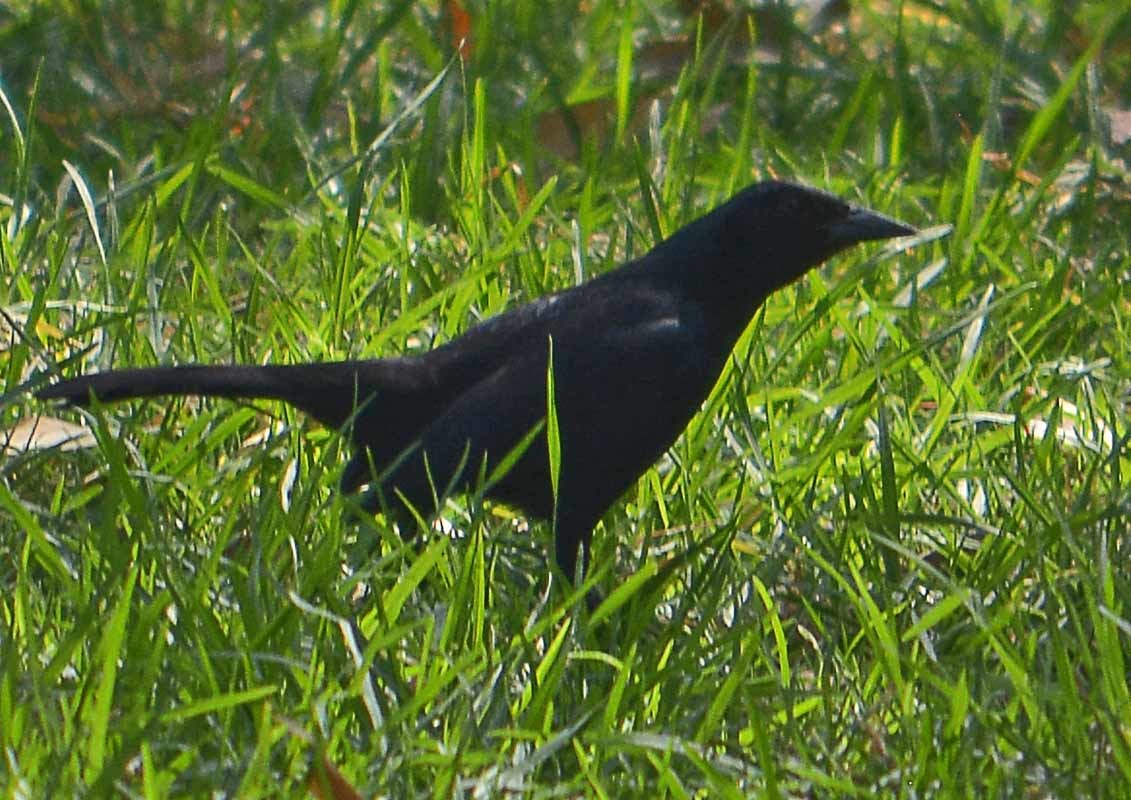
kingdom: Animalia
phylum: Chordata
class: Aves
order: Passeriformes
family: Icteridae
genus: Dives
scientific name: Dives dives
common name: Melodious blackbird
